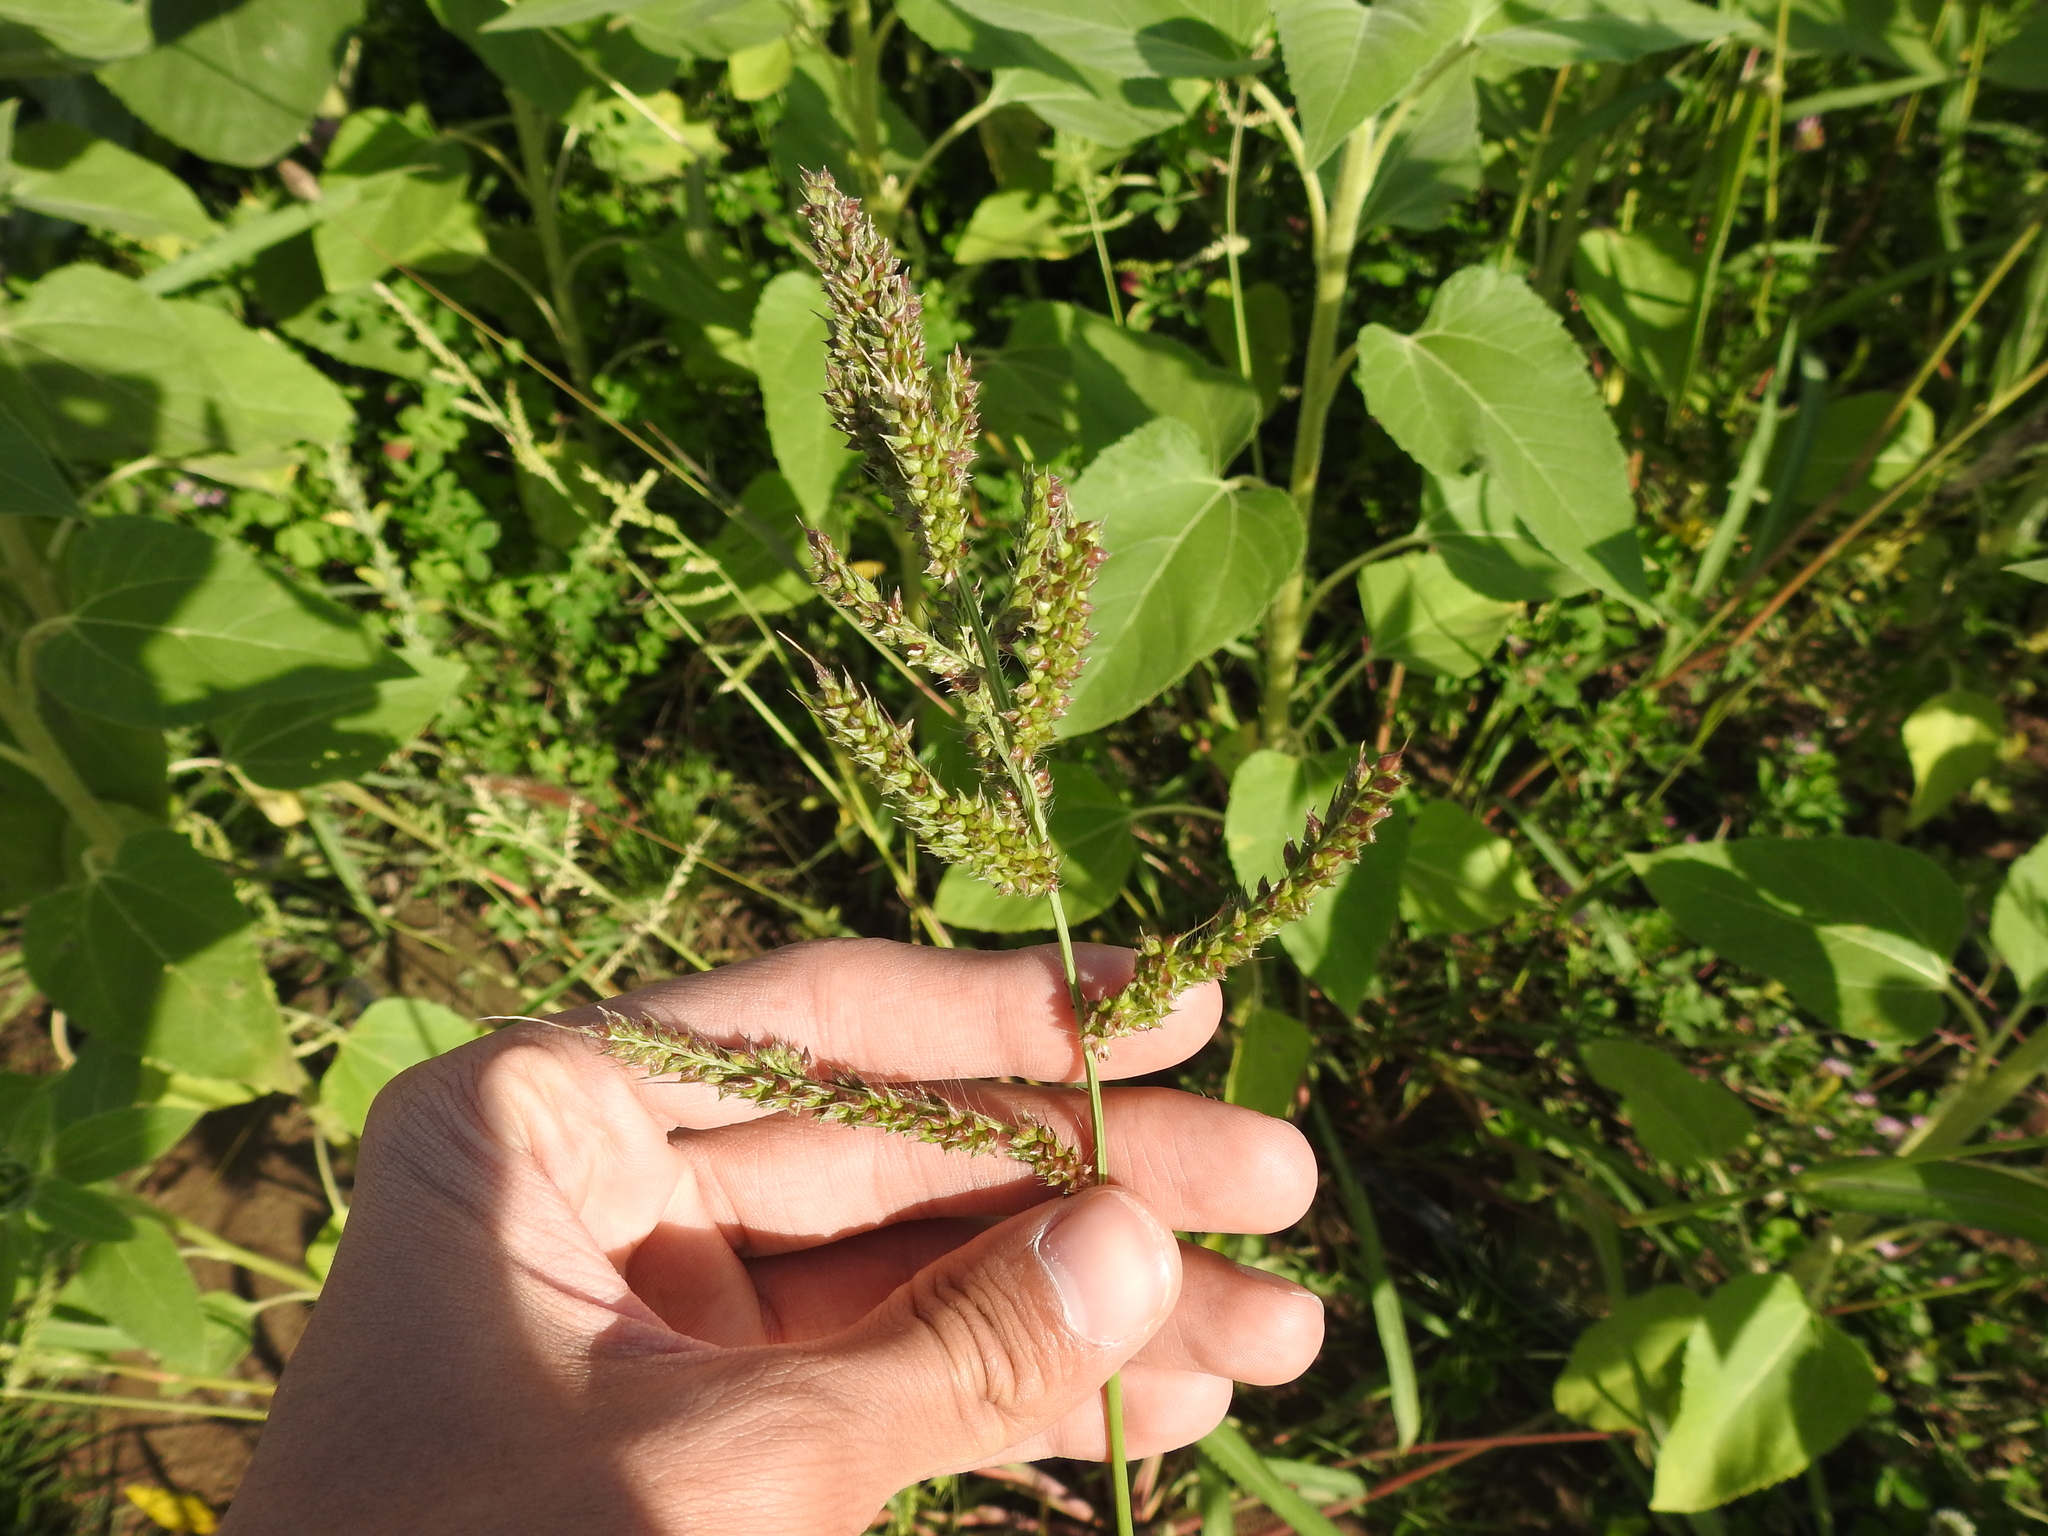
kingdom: Plantae
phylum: Tracheophyta
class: Liliopsida
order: Poales
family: Poaceae
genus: Echinochloa
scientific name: Echinochloa crus-galli
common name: Cockspur
